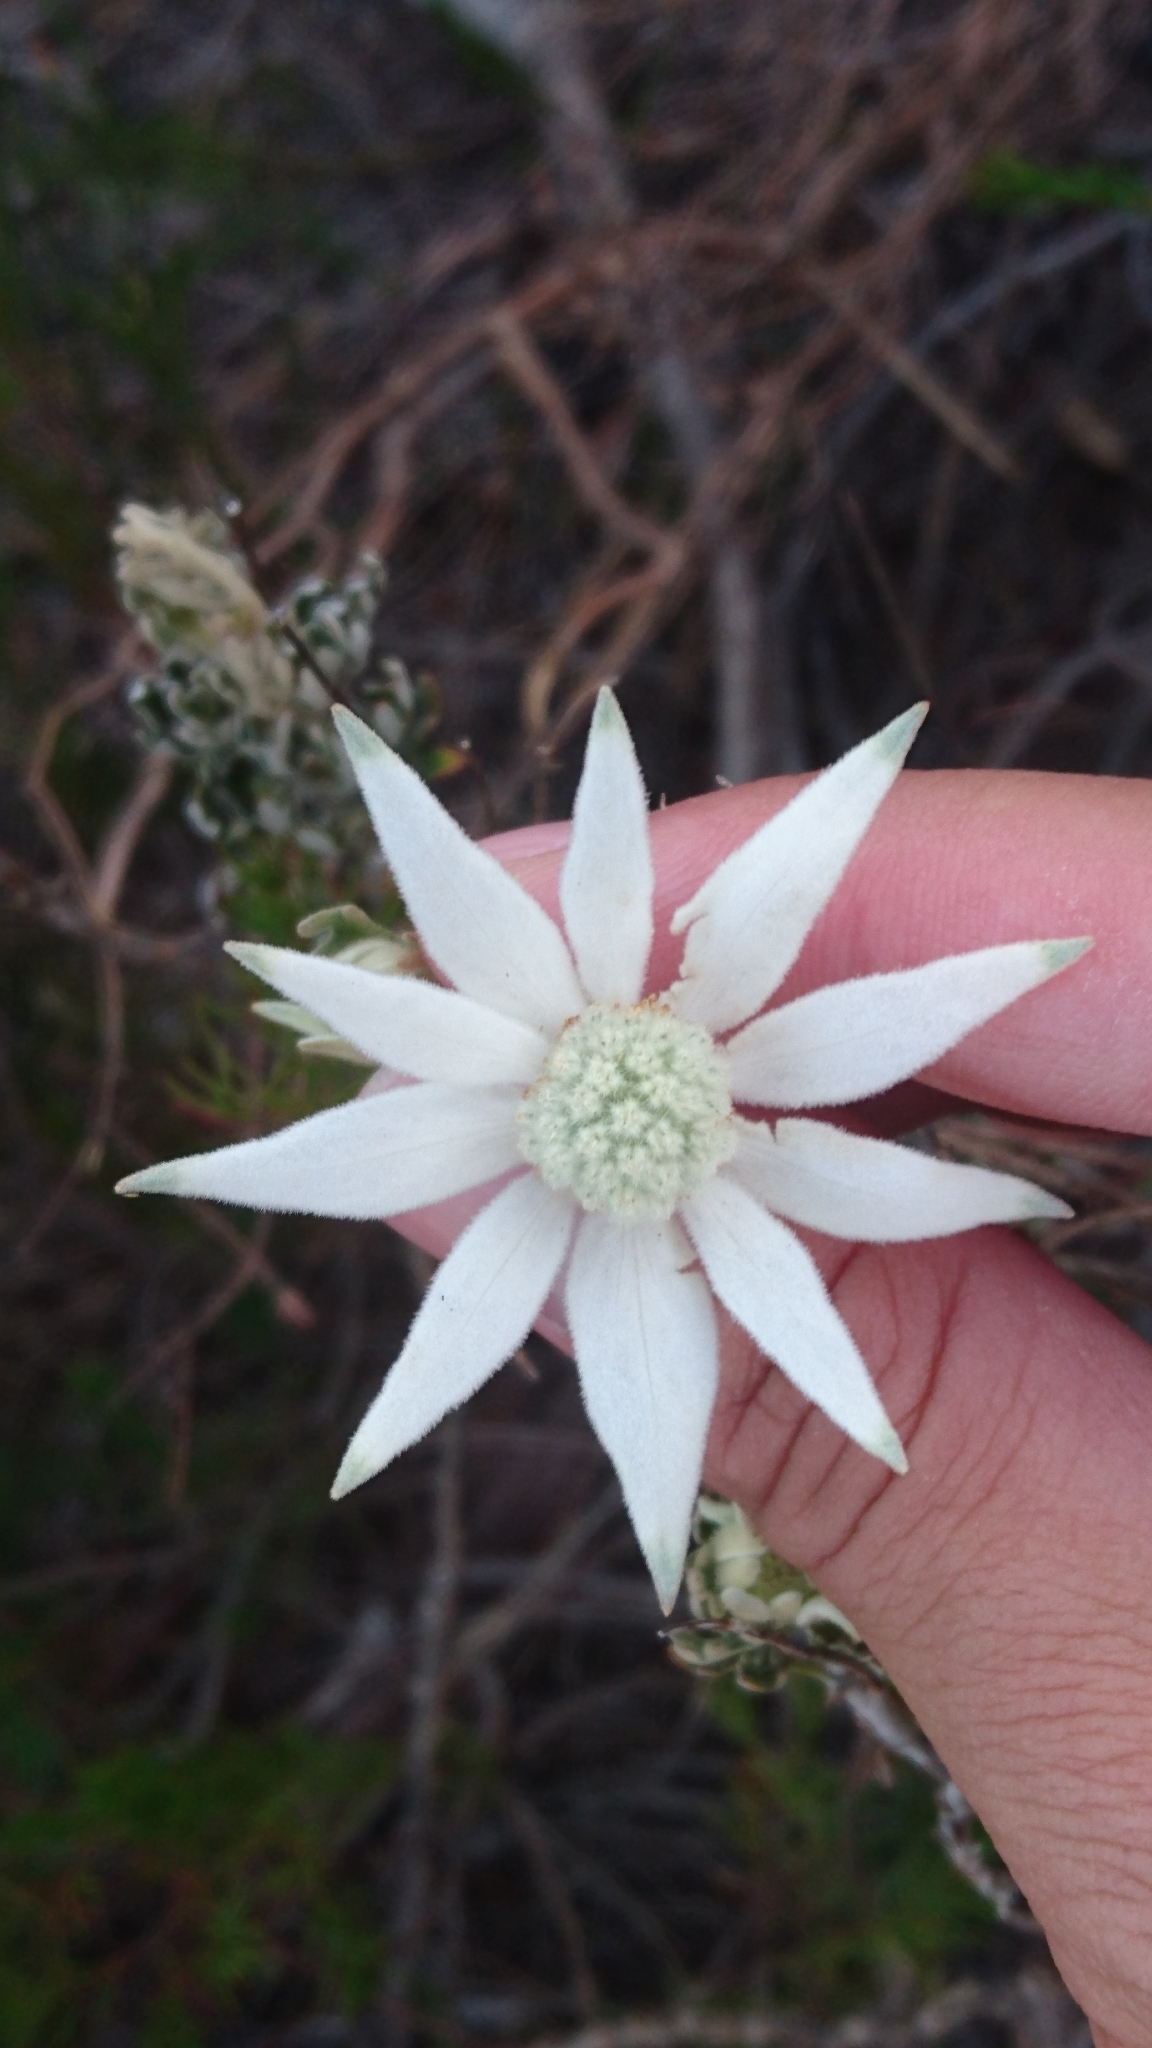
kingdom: Plantae
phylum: Tracheophyta
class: Magnoliopsida
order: Apiales
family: Apiaceae
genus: Actinotus
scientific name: Actinotus helianthi
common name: Flannel-flower
